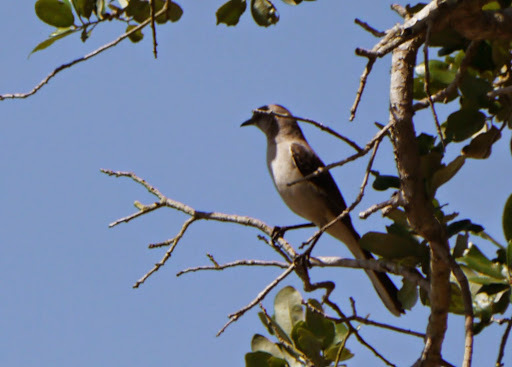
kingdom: Animalia
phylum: Chordata
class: Aves
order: Passeriformes
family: Mimidae
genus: Mimus
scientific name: Mimus polyglottos
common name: Northern mockingbird
